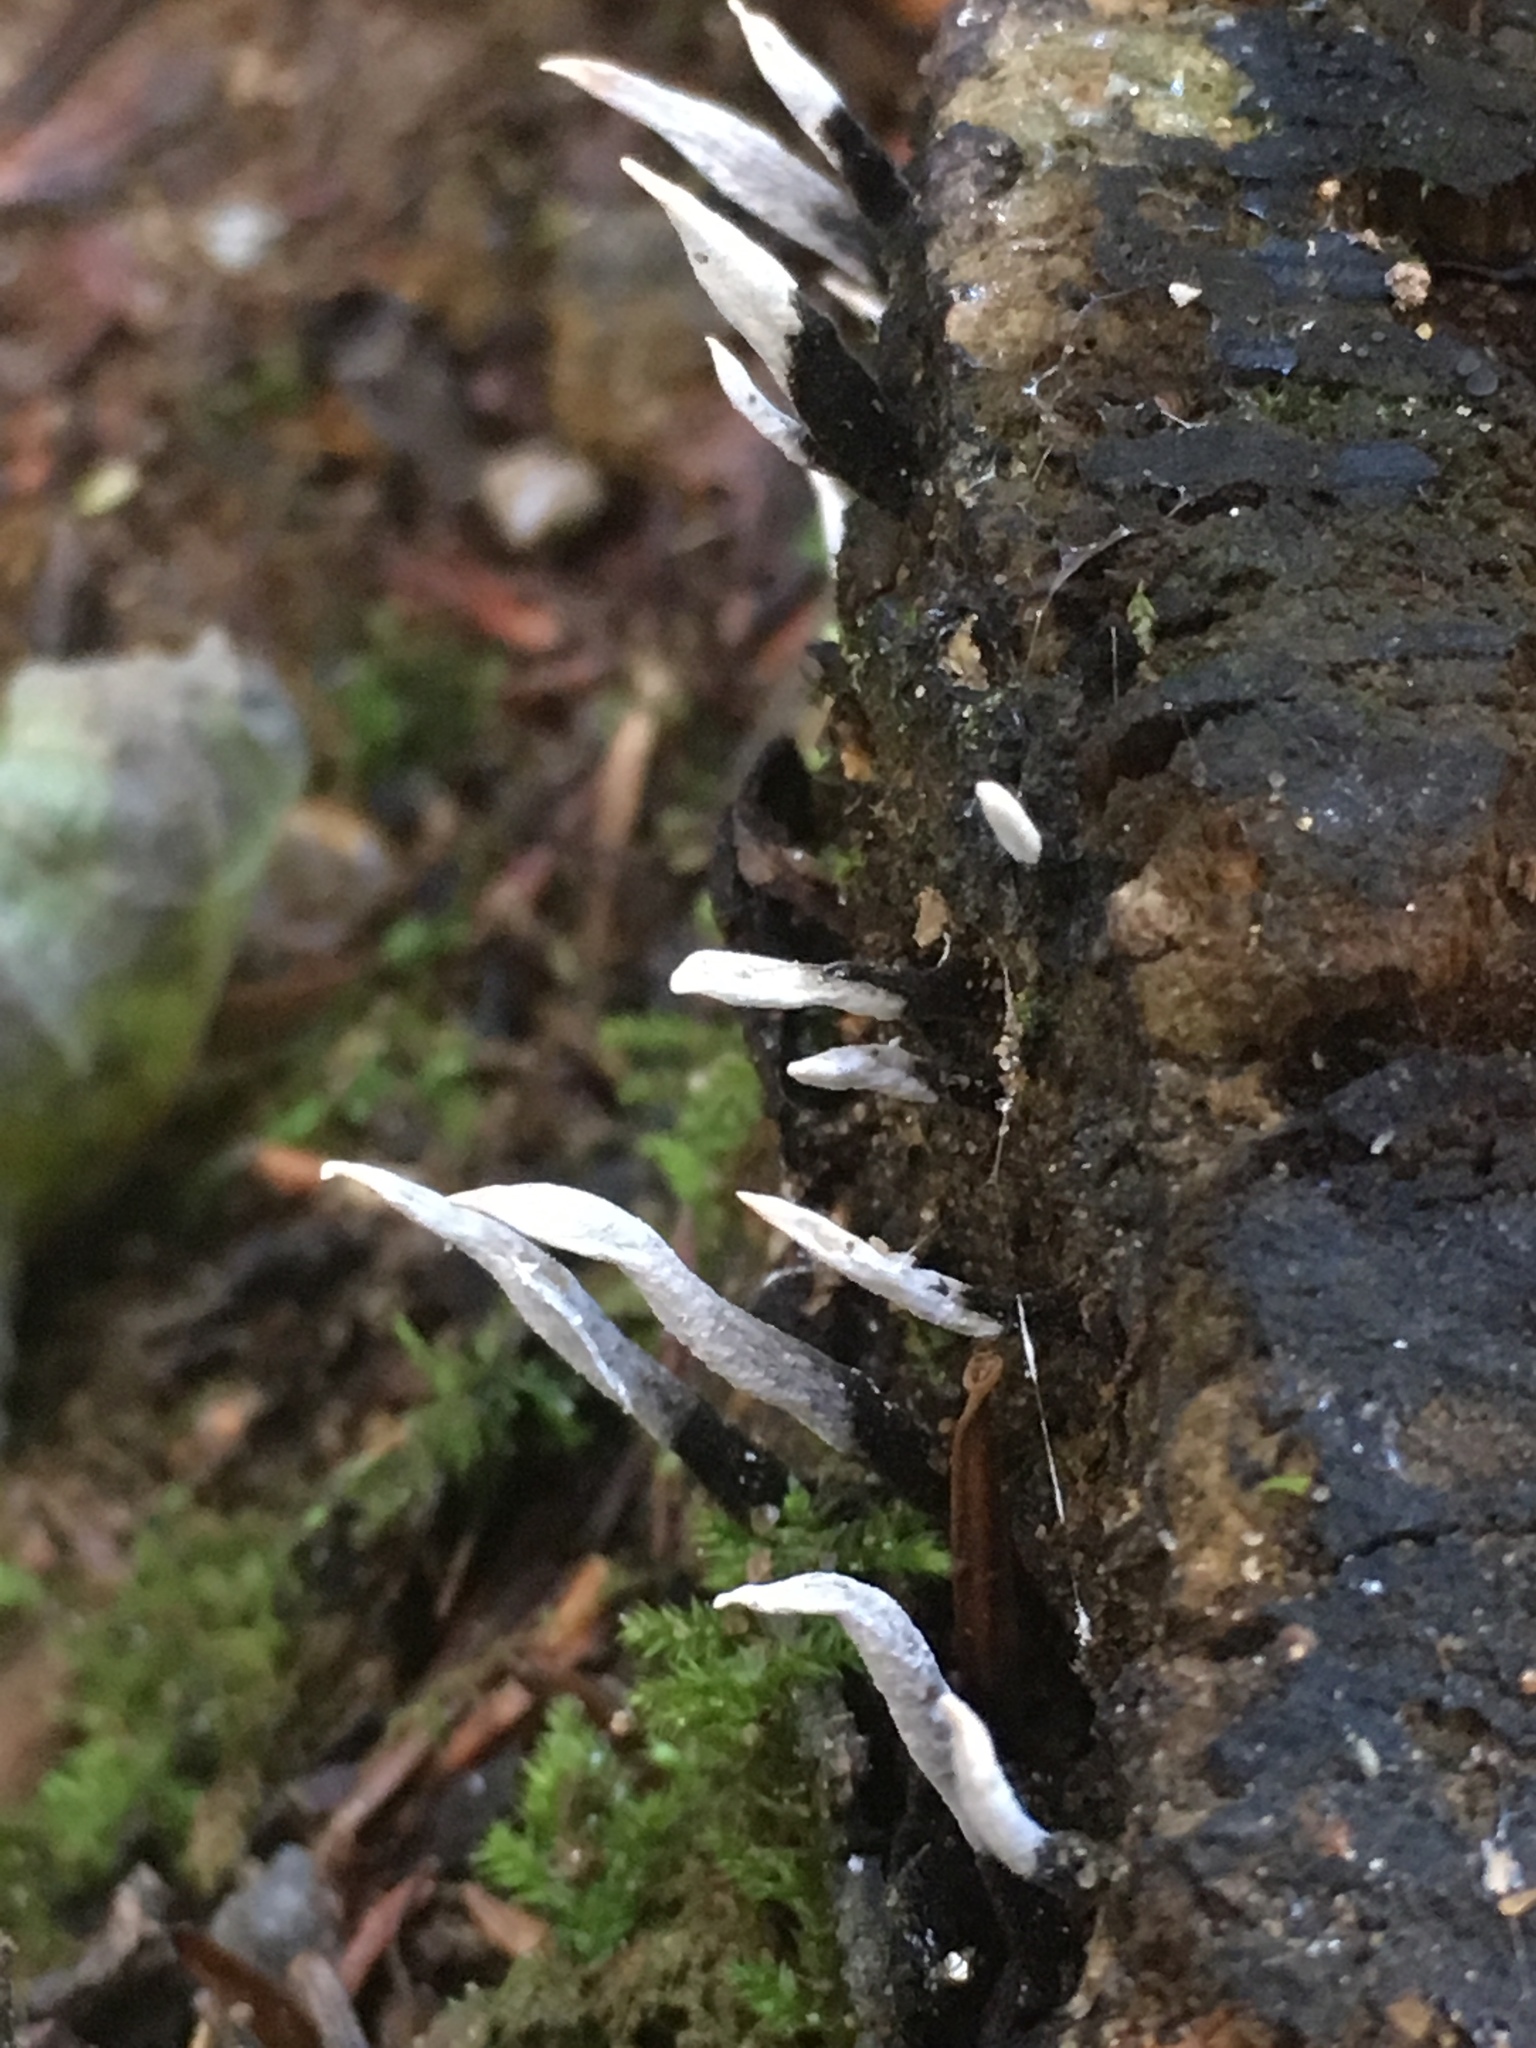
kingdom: Fungi
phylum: Ascomycota
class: Sordariomycetes
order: Xylariales
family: Xylariaceae
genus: Xylaria
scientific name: Xylaria hypoxylon
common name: Candle-snuff fungus
